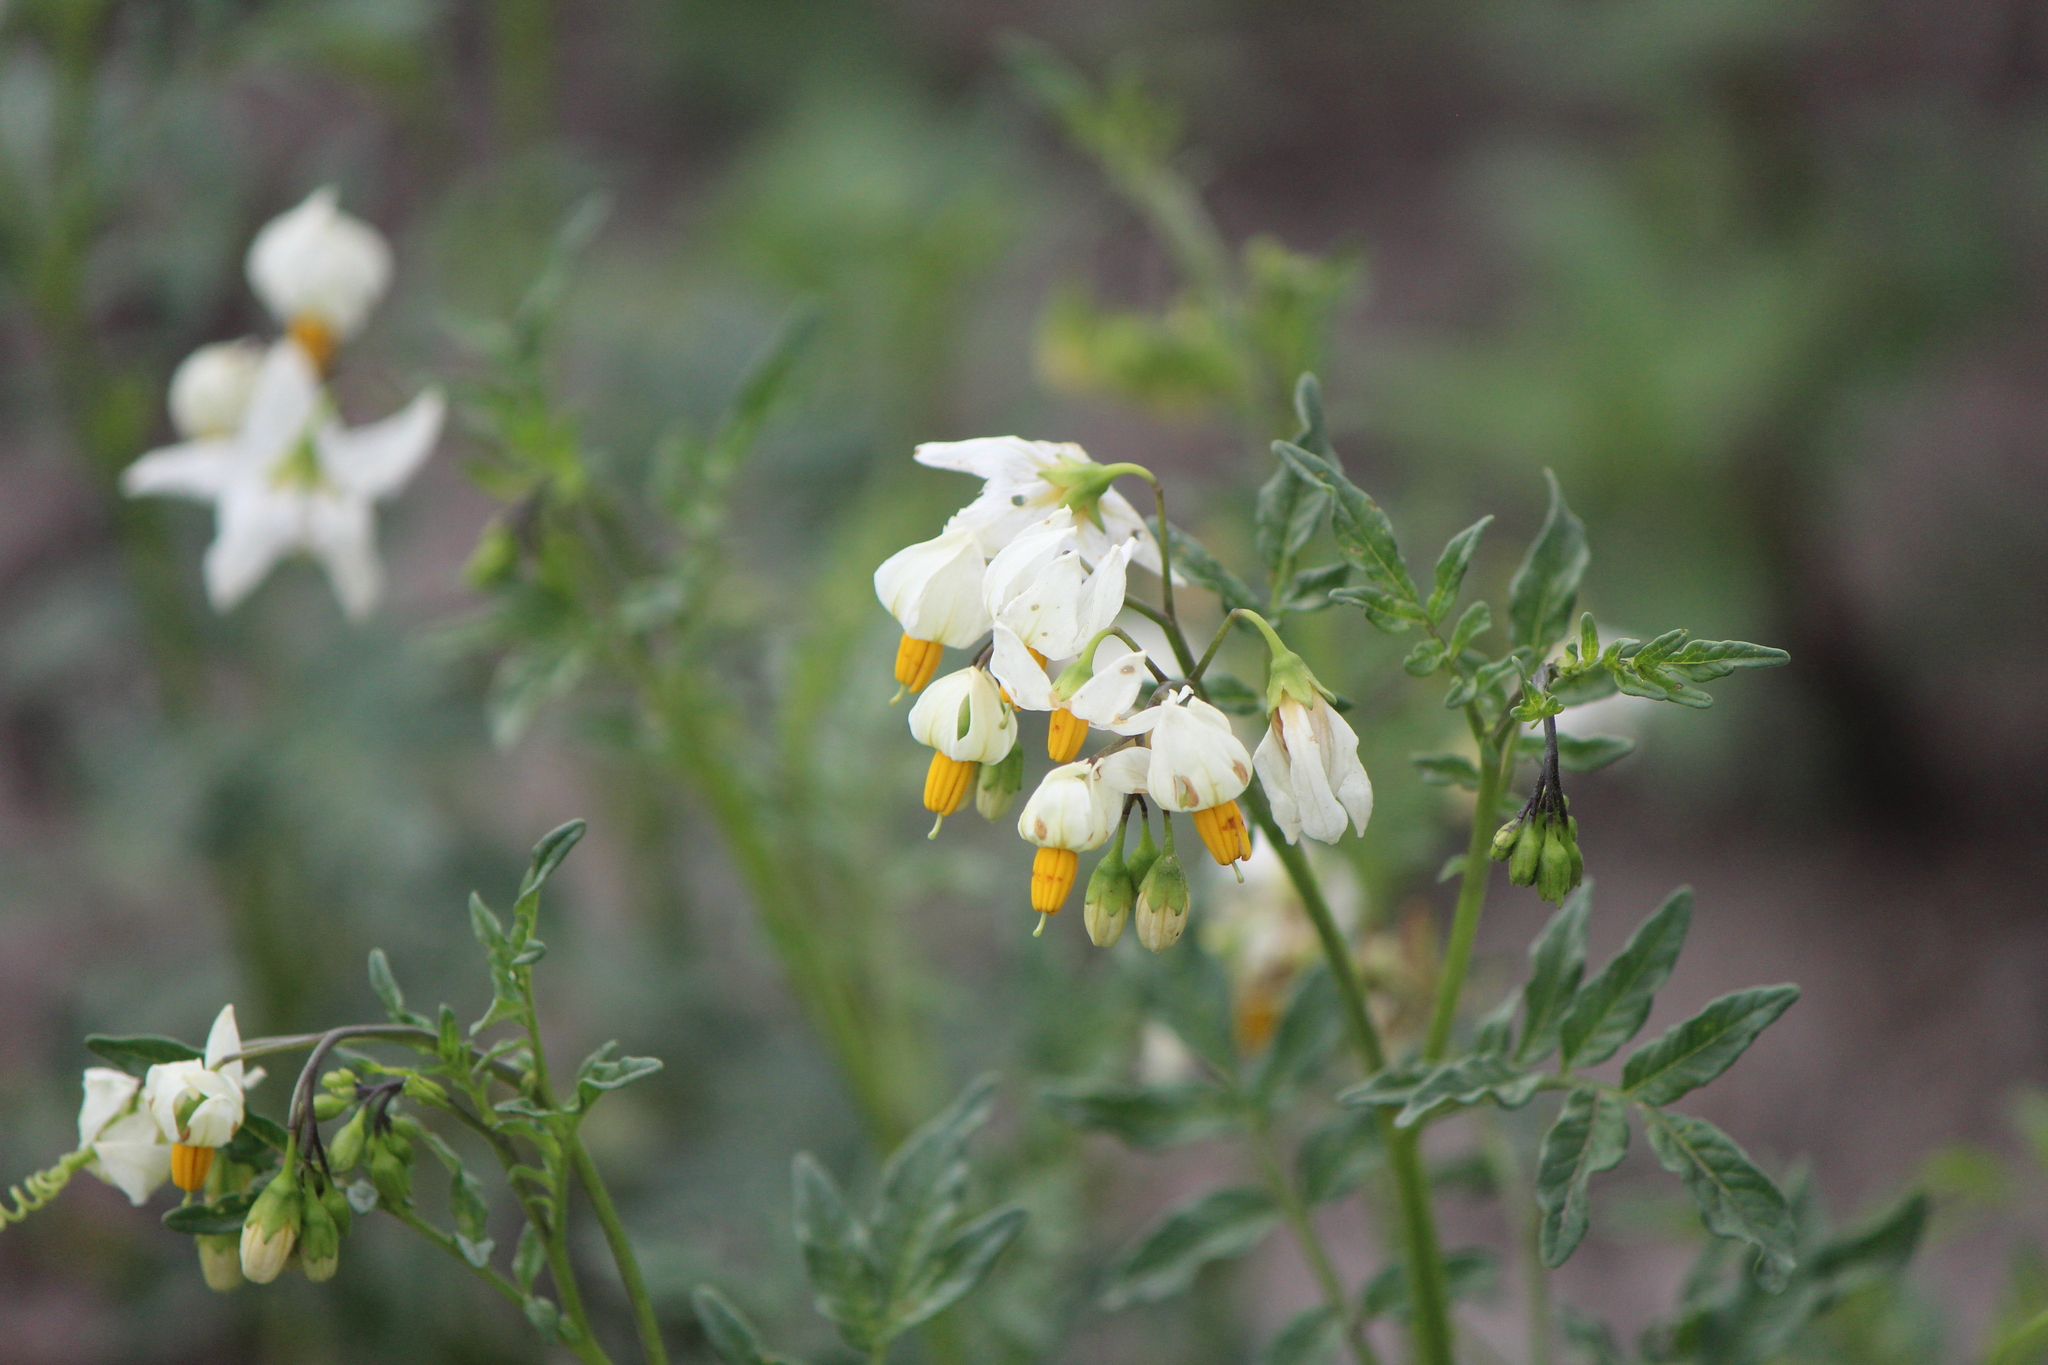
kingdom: Plantae
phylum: Tracheophyta
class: Magnoliopsida
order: Solanales
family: Solanaceae
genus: Solanum
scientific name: Solanum pinnatisectum
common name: Tansyleaf nightshade
